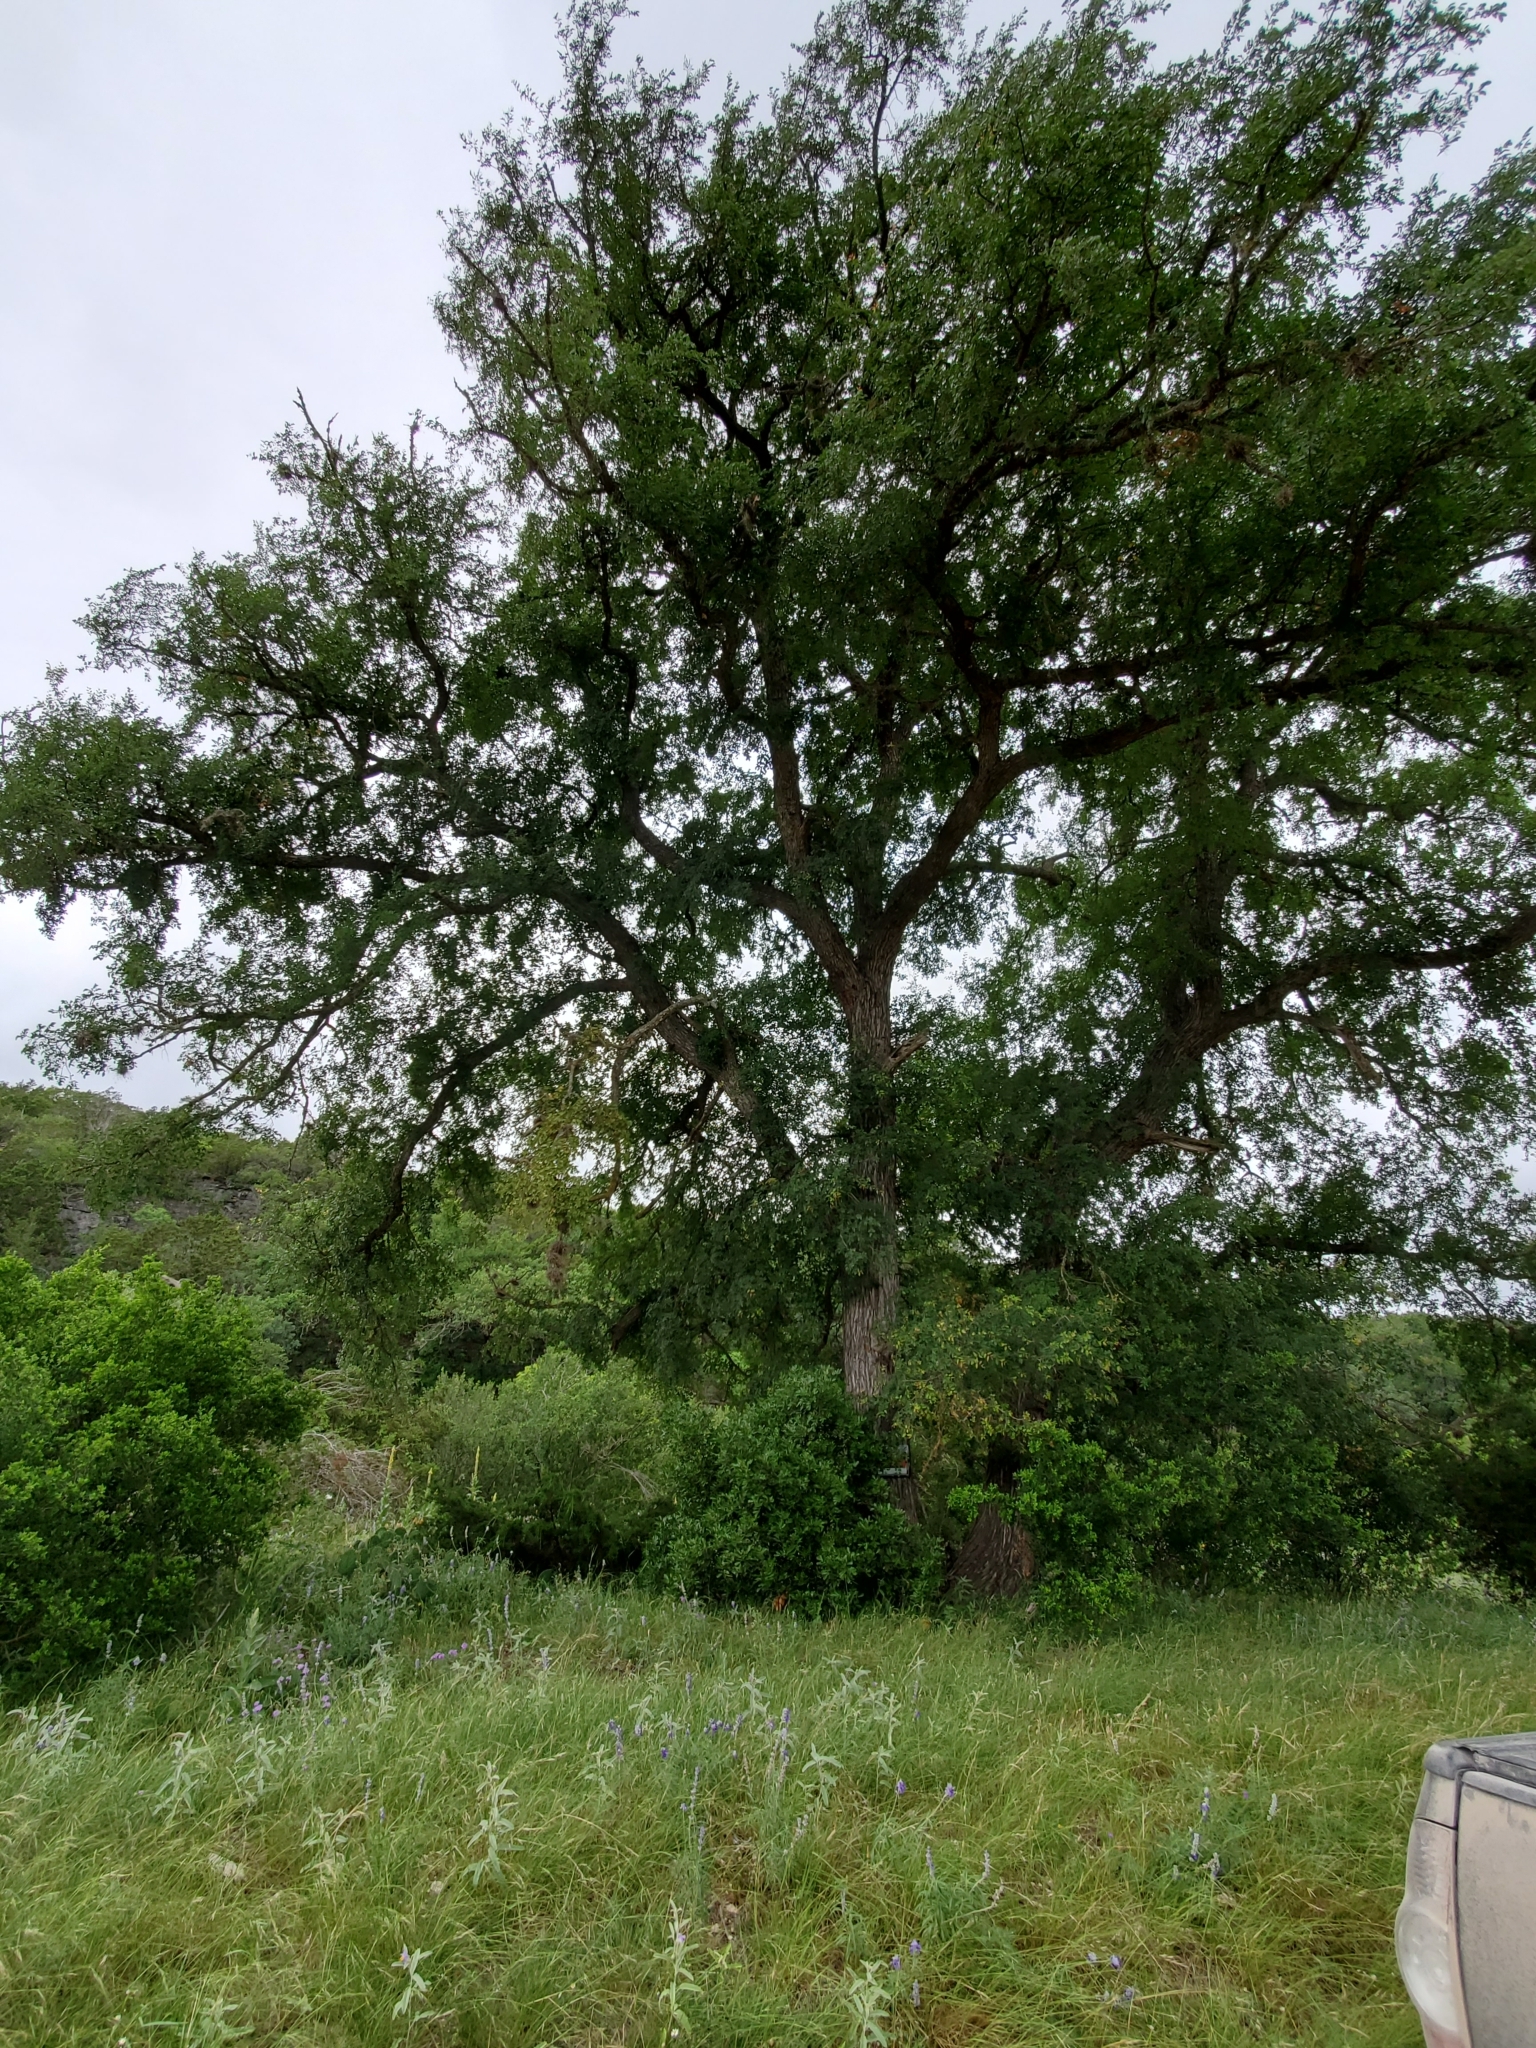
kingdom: Plantae
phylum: Tracheophyta
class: Magnoliopsida
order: Rosales
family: Ulmaceae
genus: Ulmus
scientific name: Ulmus crassifolia
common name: Basket elm
